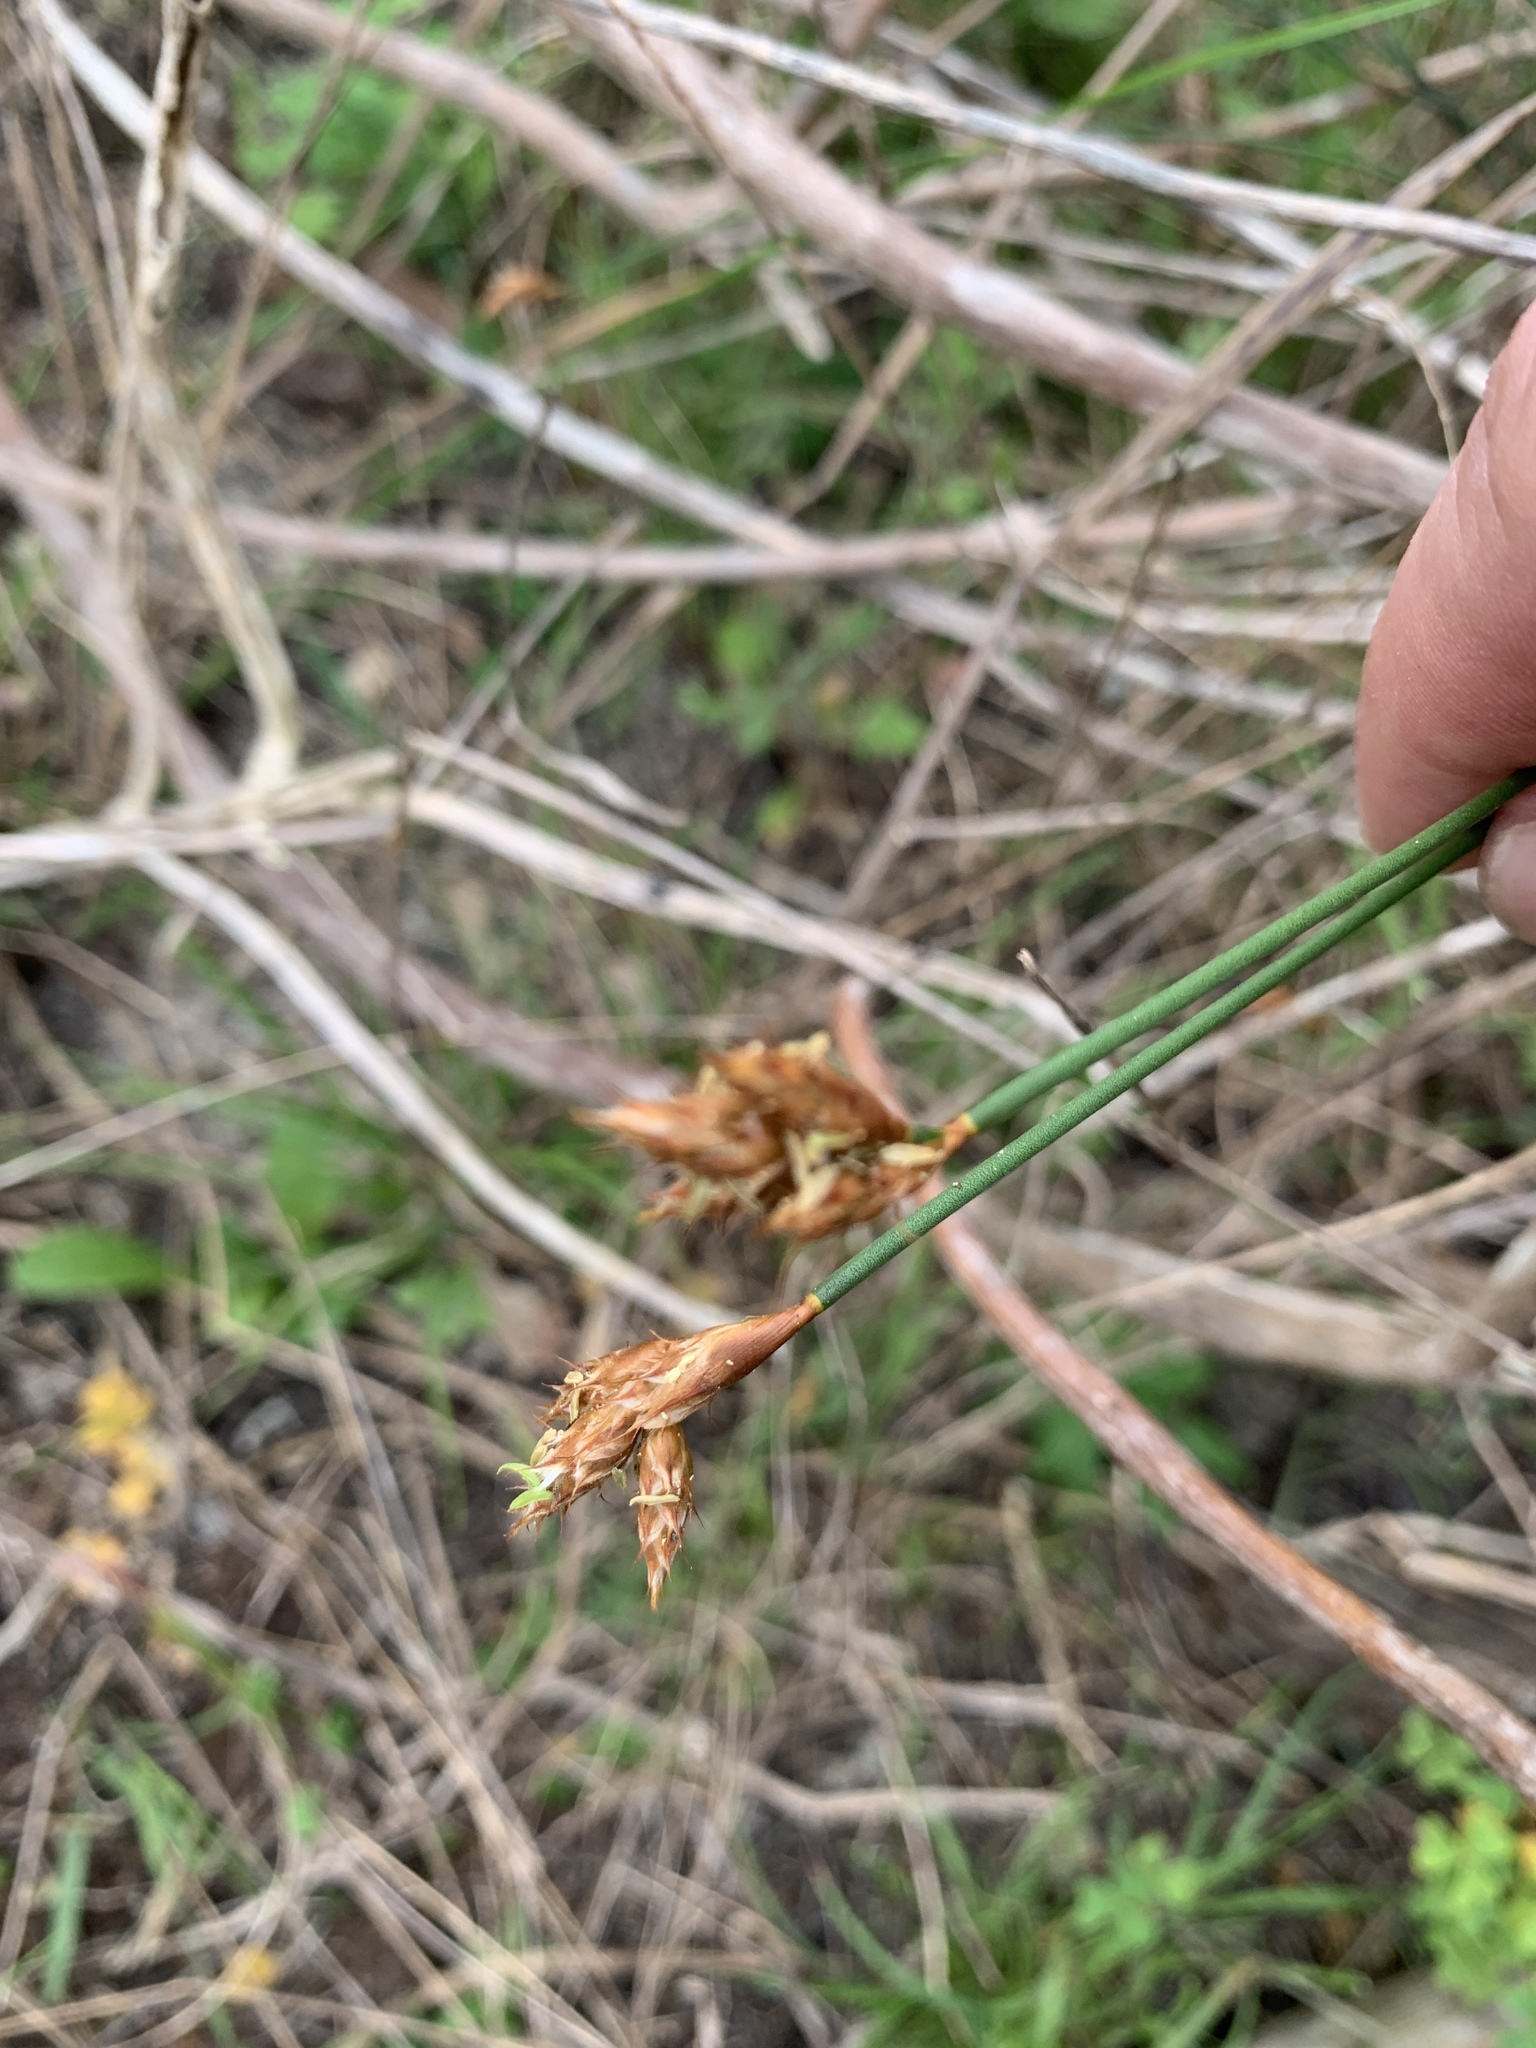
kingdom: Plantae
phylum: Tracheophyta
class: Liliopsida
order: Poales
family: Restionaceae
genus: Restio
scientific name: Restio capensis
